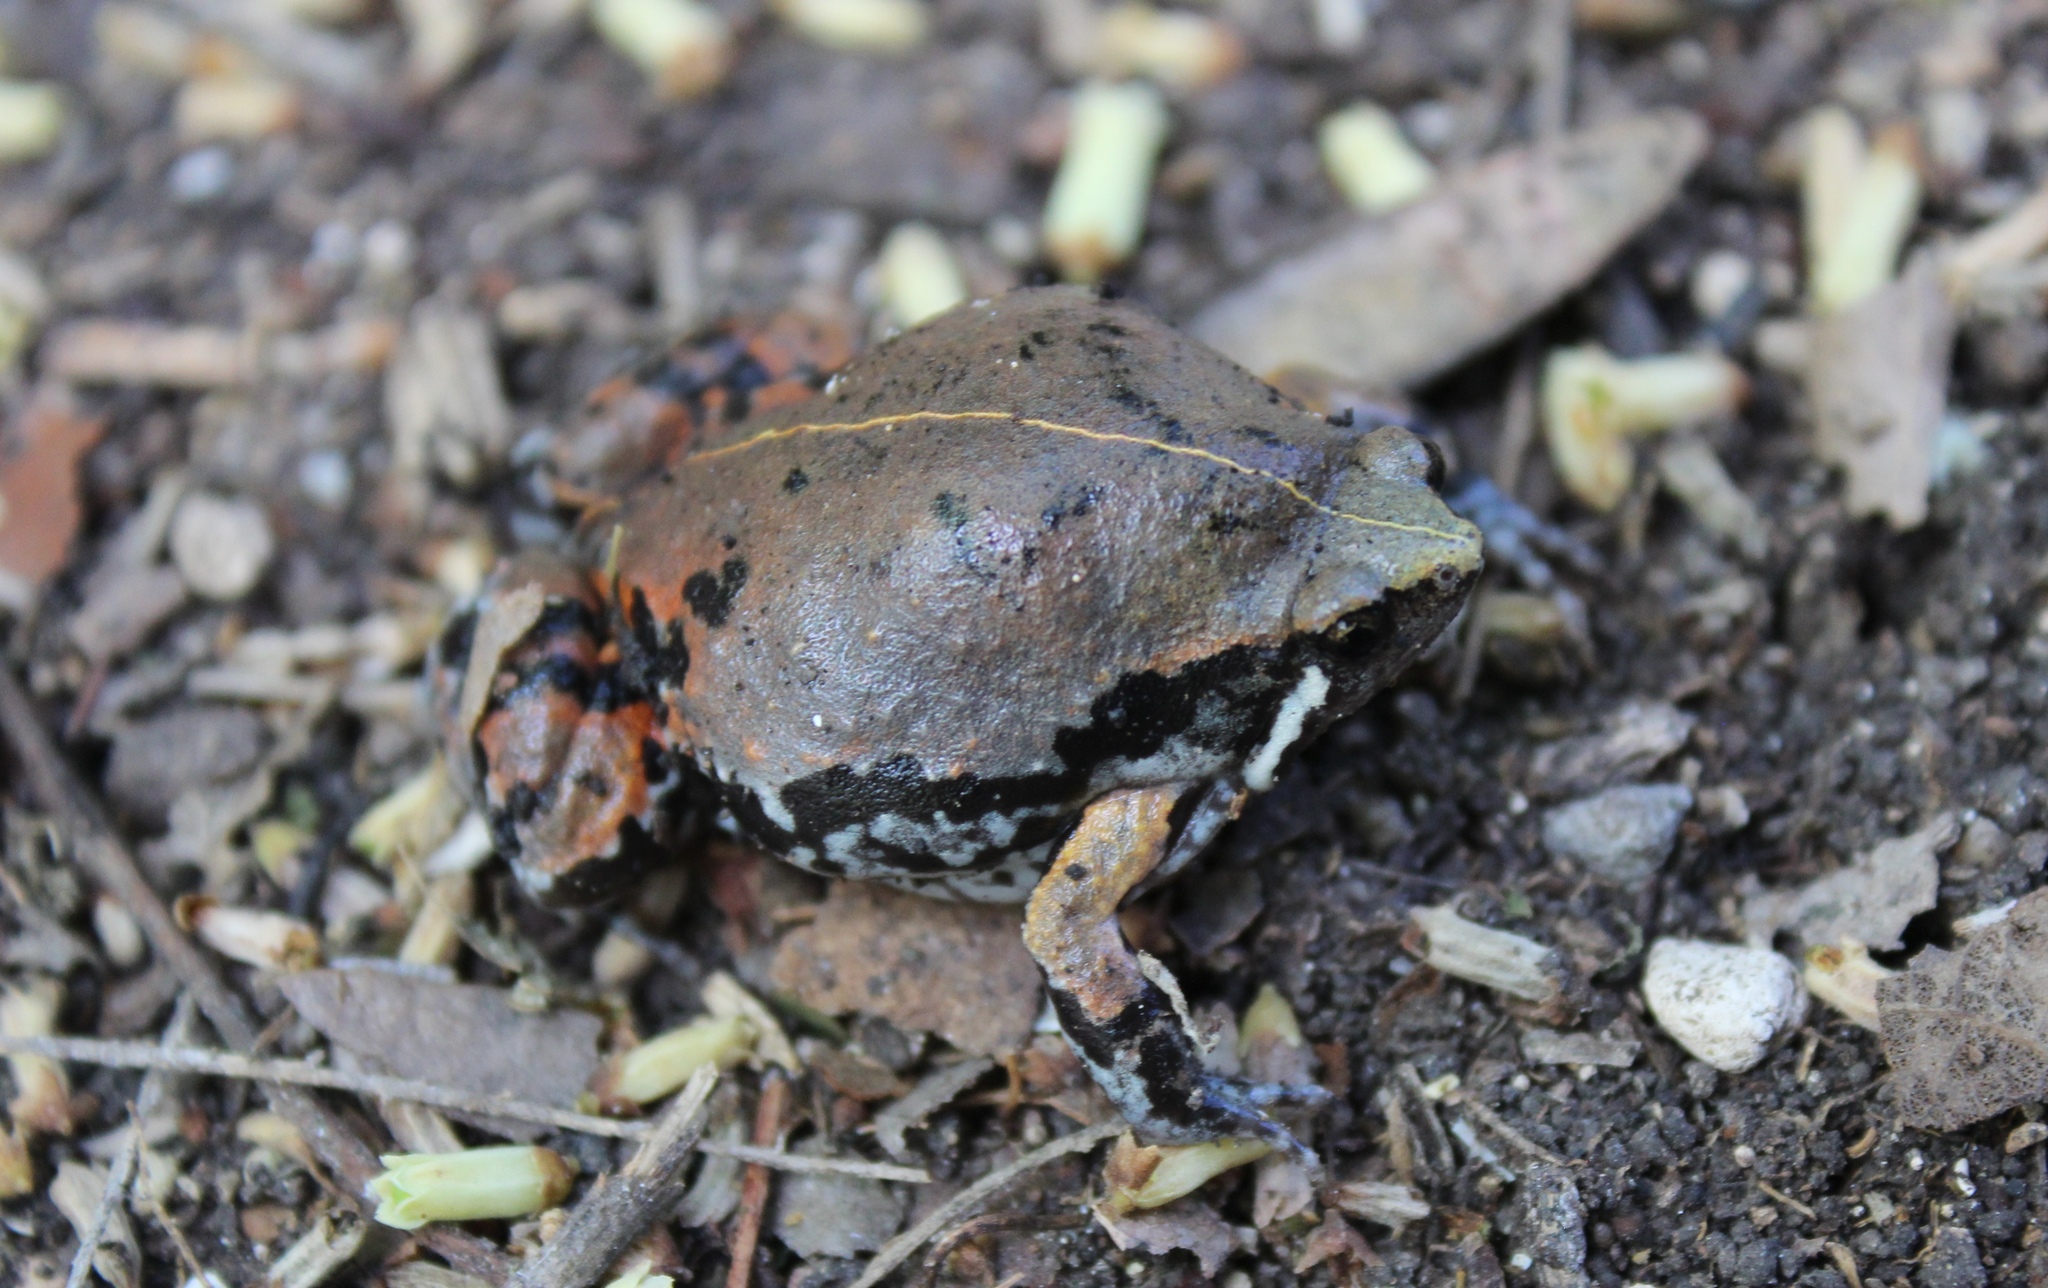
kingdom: Animalia
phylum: Chordata
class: Amphibia
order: Anura
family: Microhylidae
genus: Hypopachus
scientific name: Hypopachus variolosus
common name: Sheep frog
